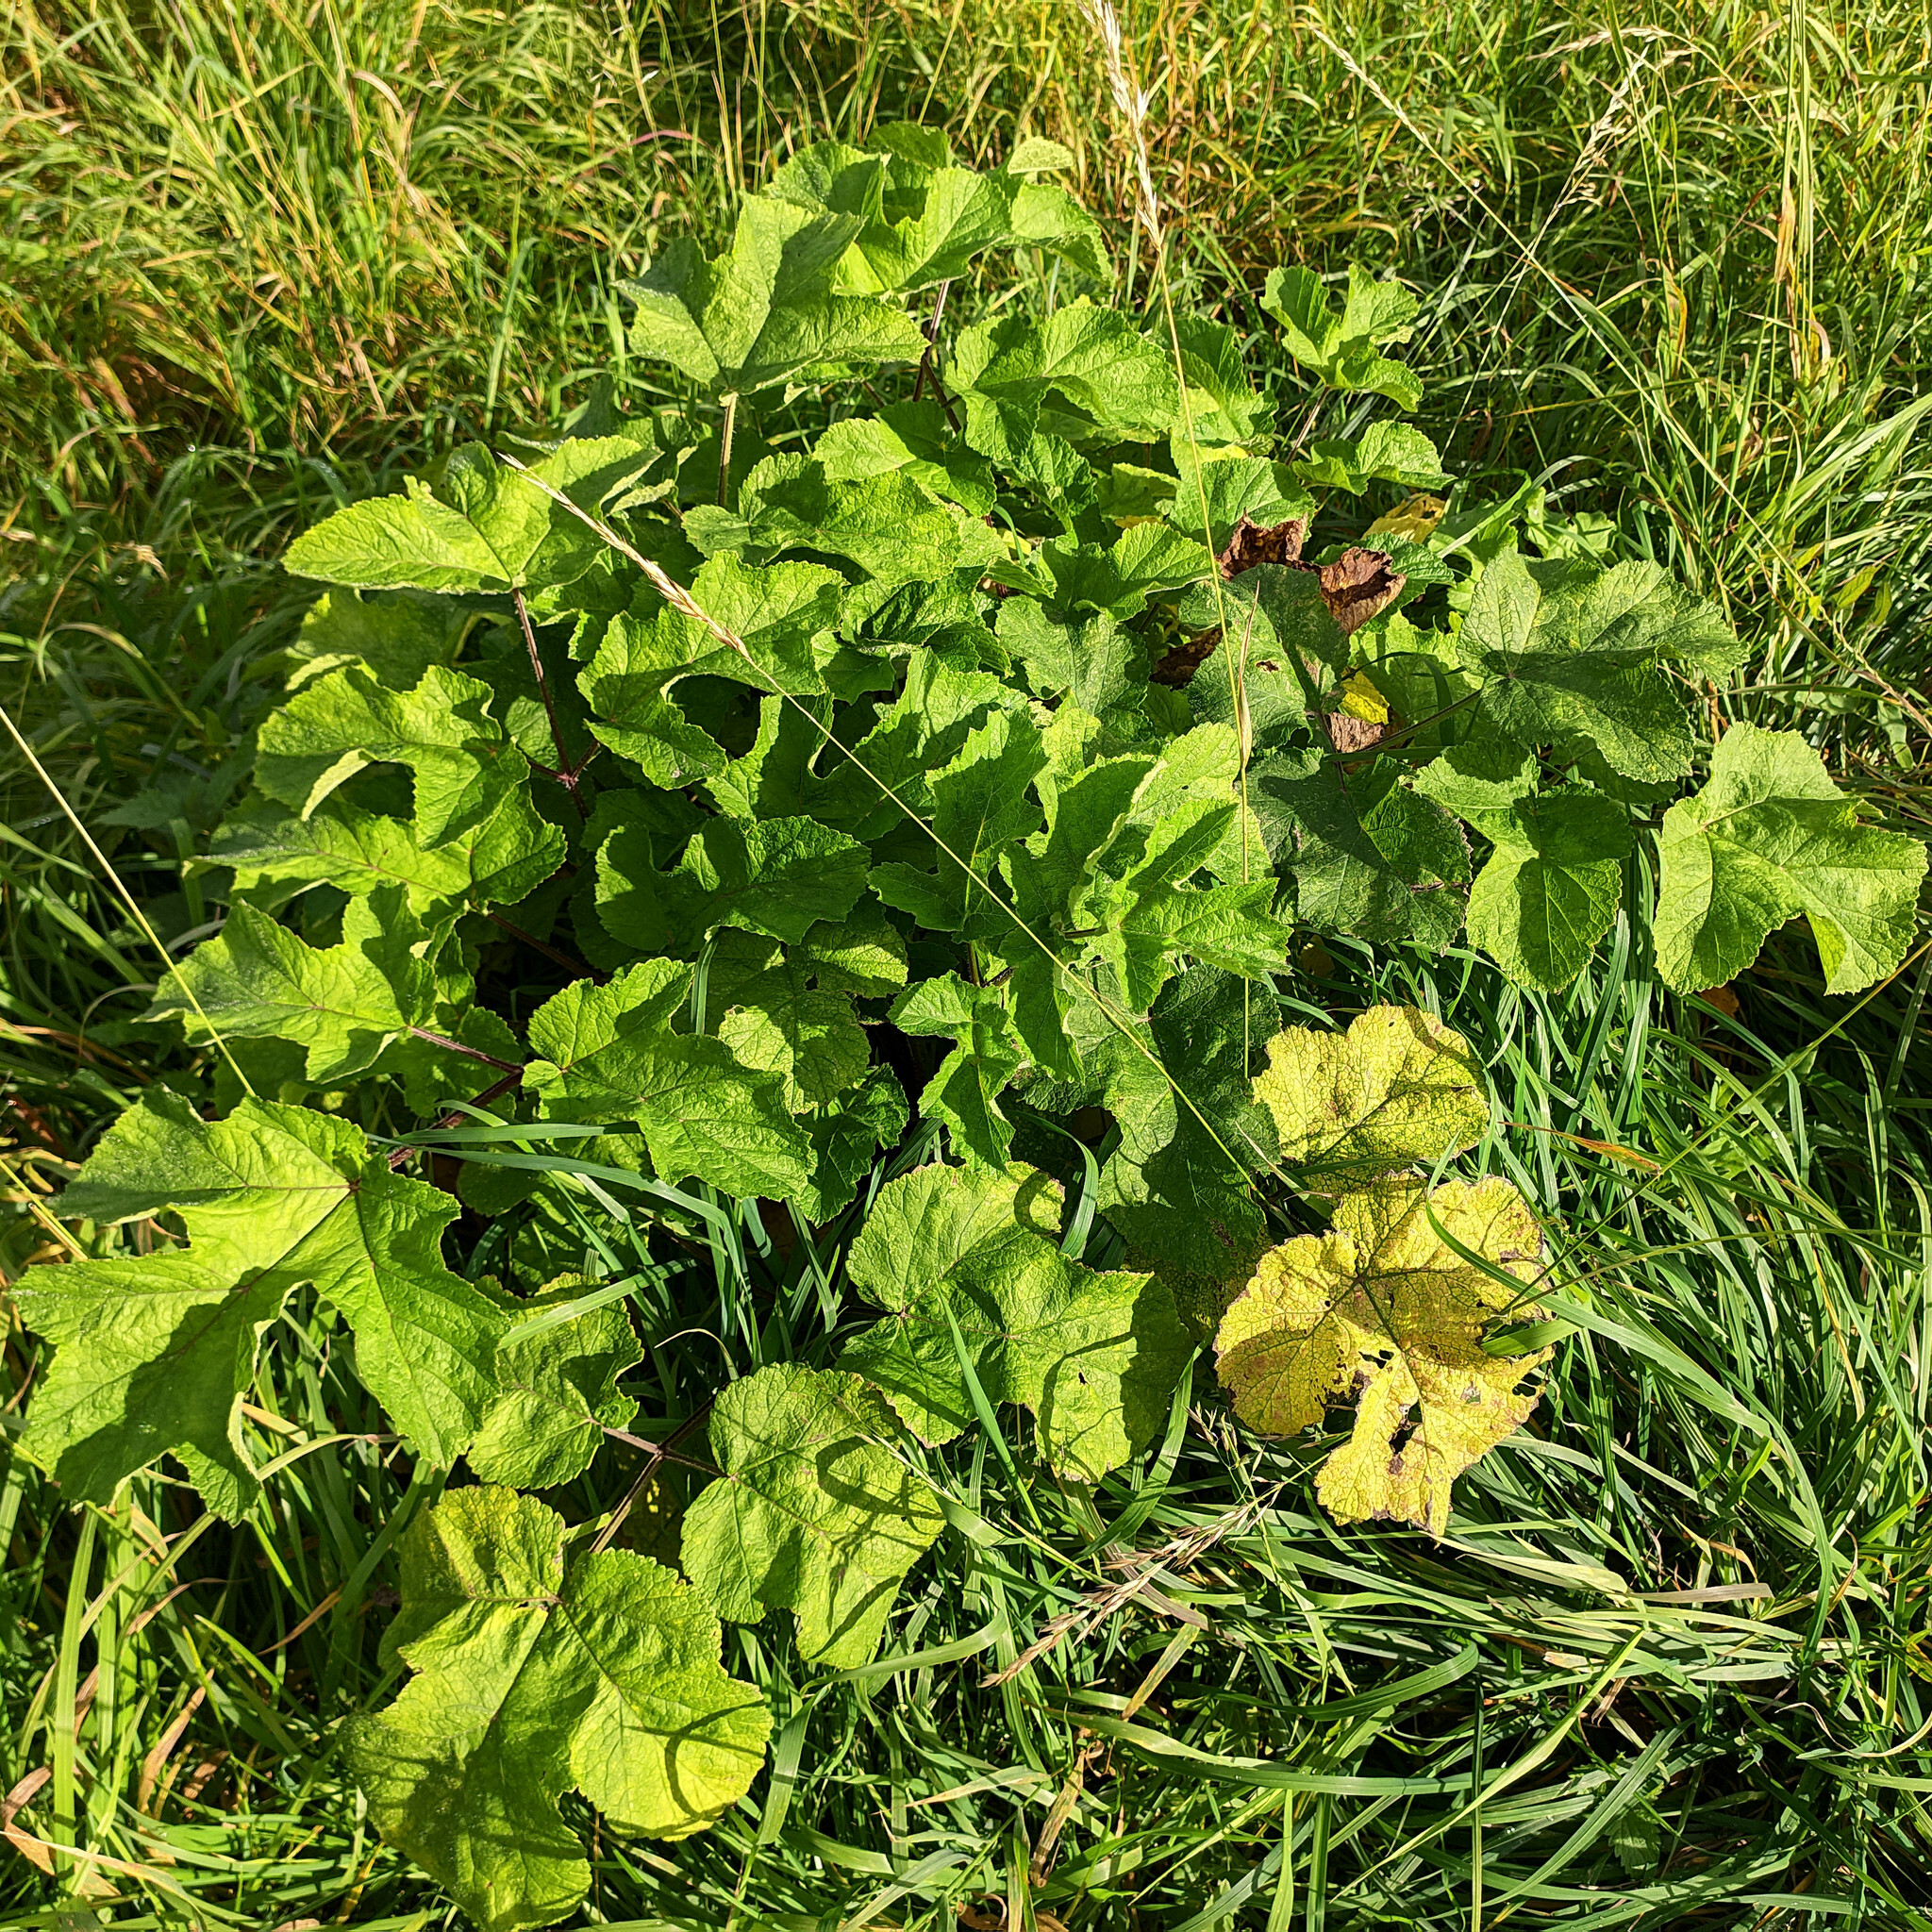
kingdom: Plantae
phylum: Tracheophyta
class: Magnoliopsida
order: Apiales
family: Apiaceae
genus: Heracleum
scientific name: Heracleum sphondylium
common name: Hogweed
